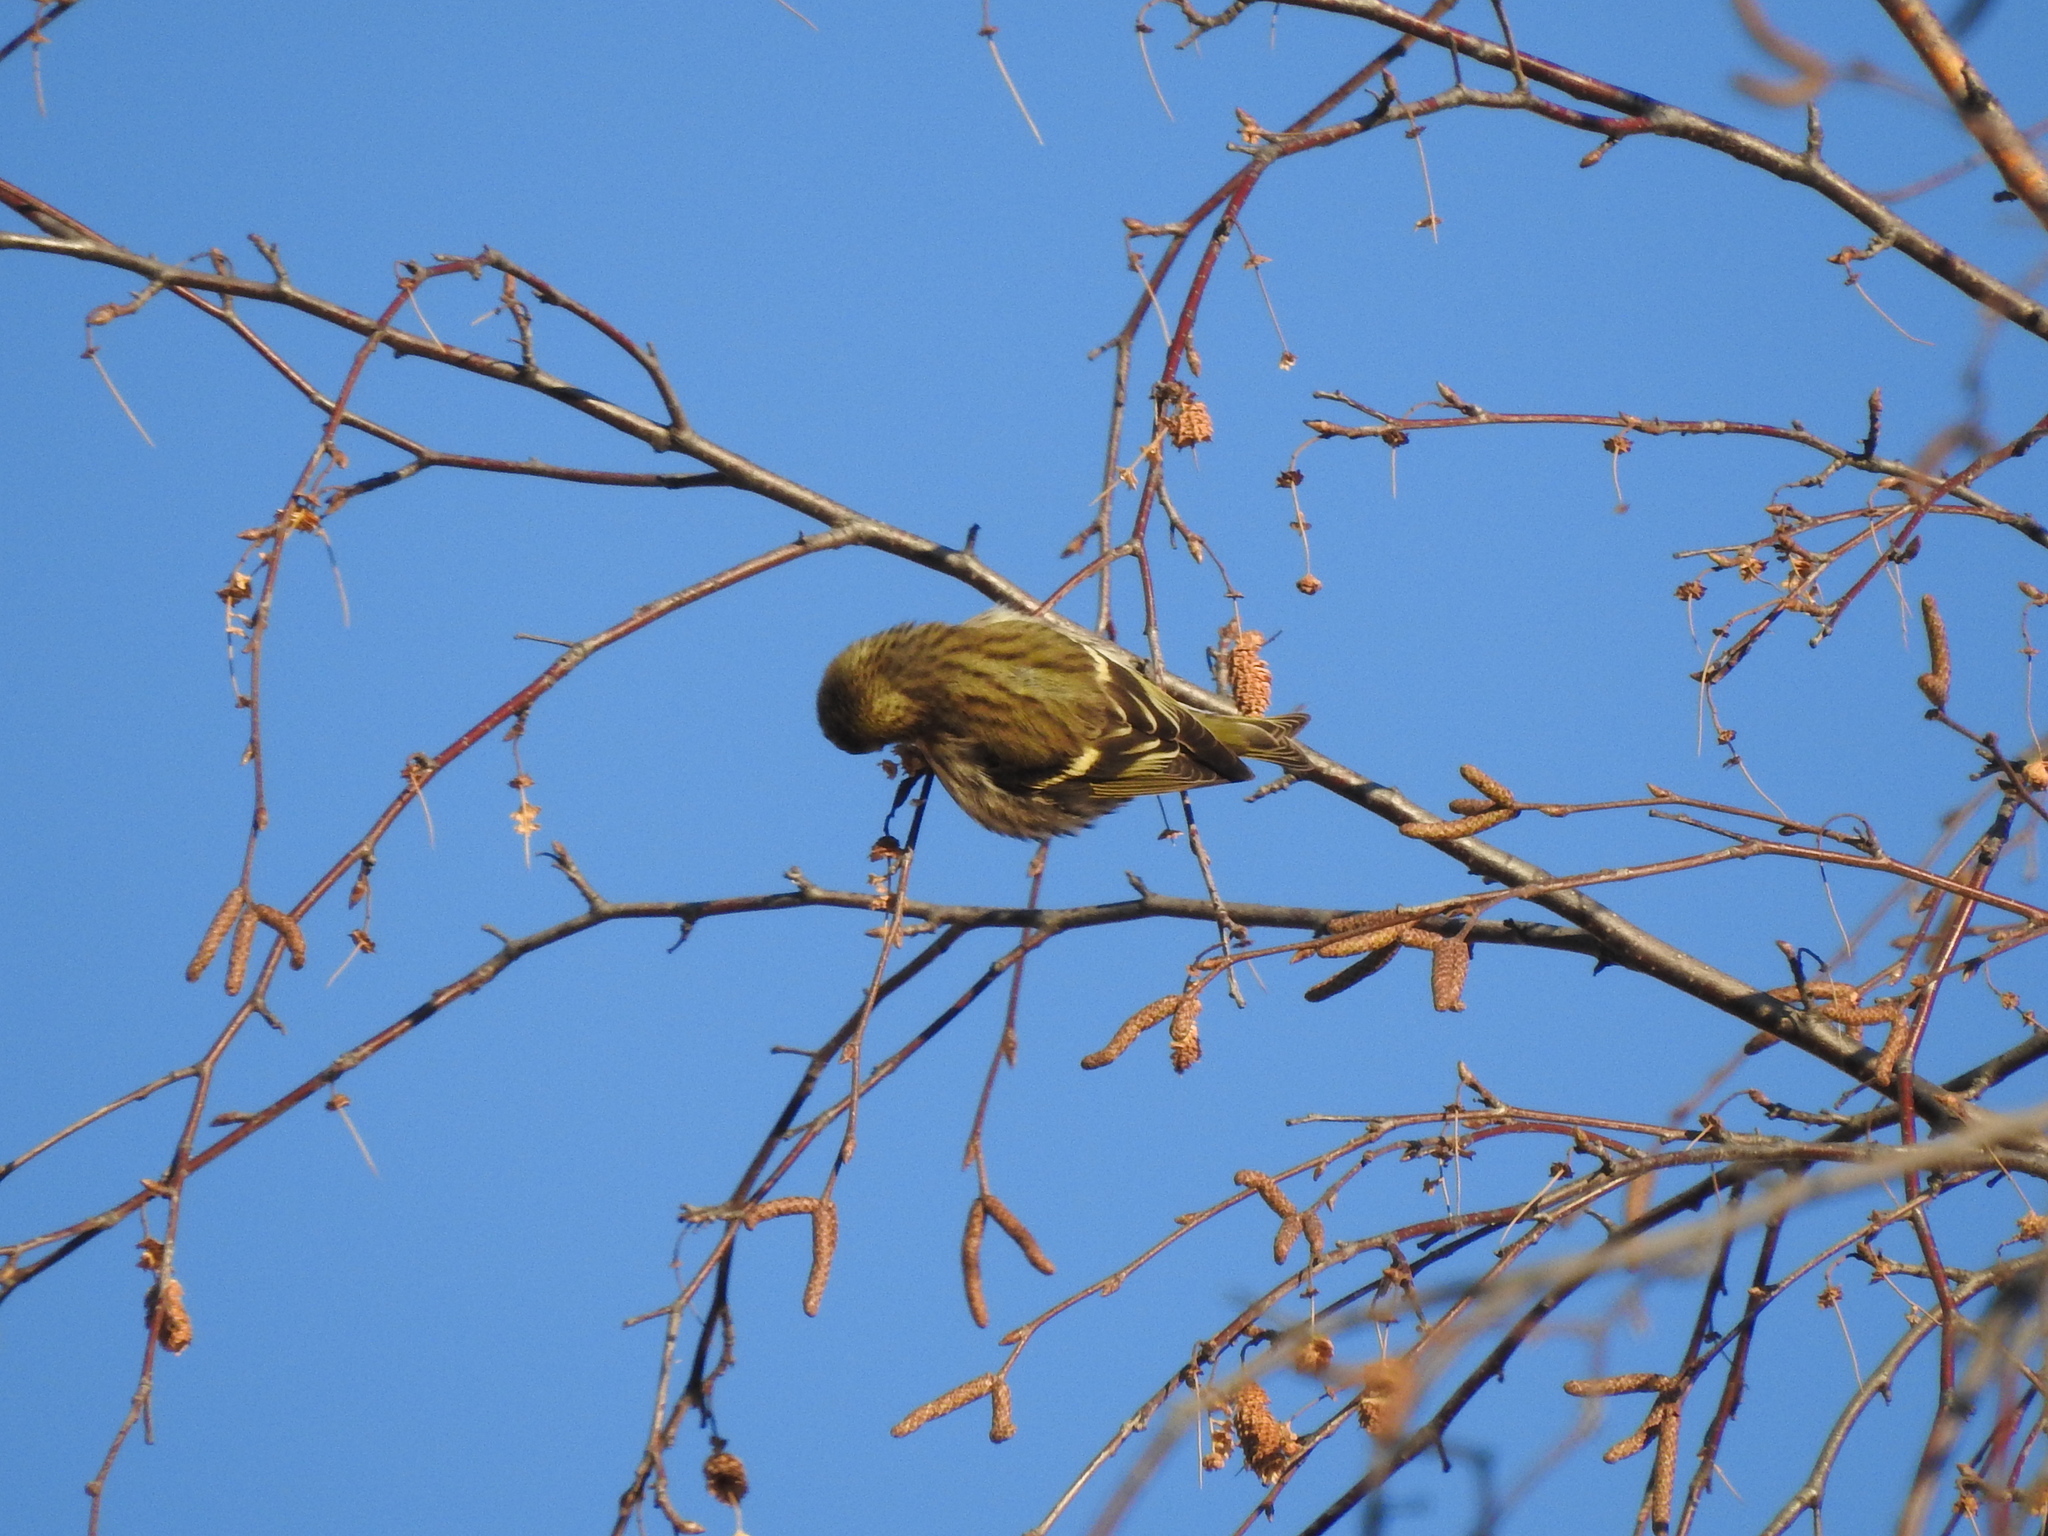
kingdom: Animalia
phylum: Chordata
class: Aves
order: Passeriformes
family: Fringillidae
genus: Spinus
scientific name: Spinus spinus
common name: Eurasian siskin
